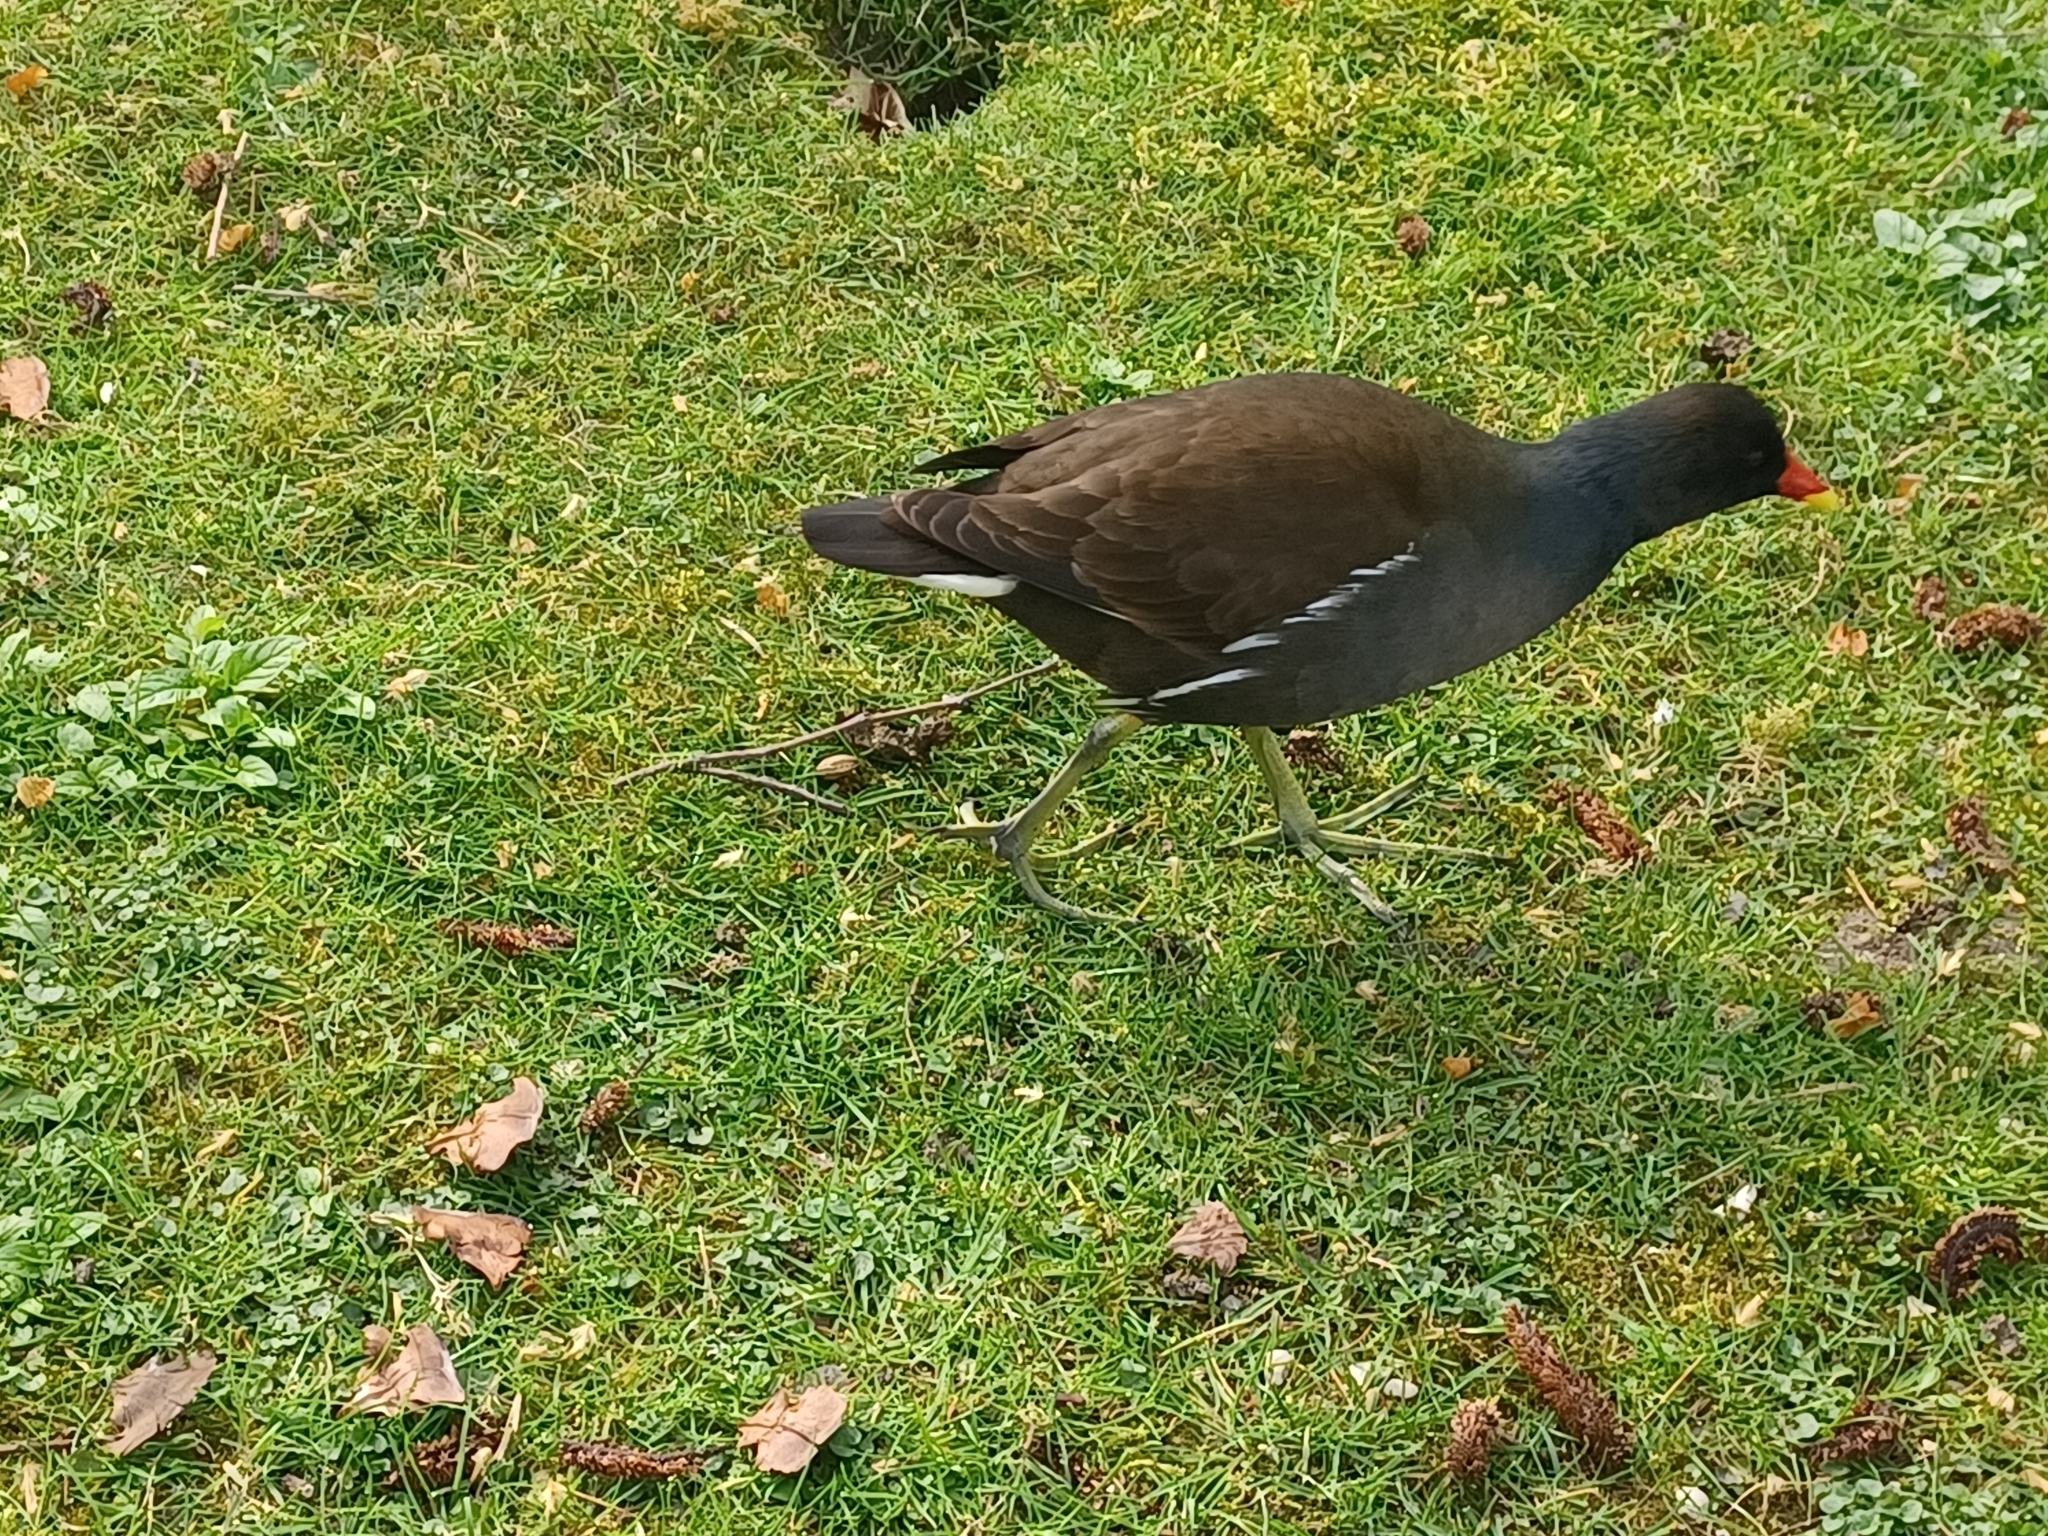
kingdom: Animalia
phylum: Chordata
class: Aves
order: Gruiformes
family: Rallidae
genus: Gallinula
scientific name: Gallinula chloropus
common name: Common moorhen
